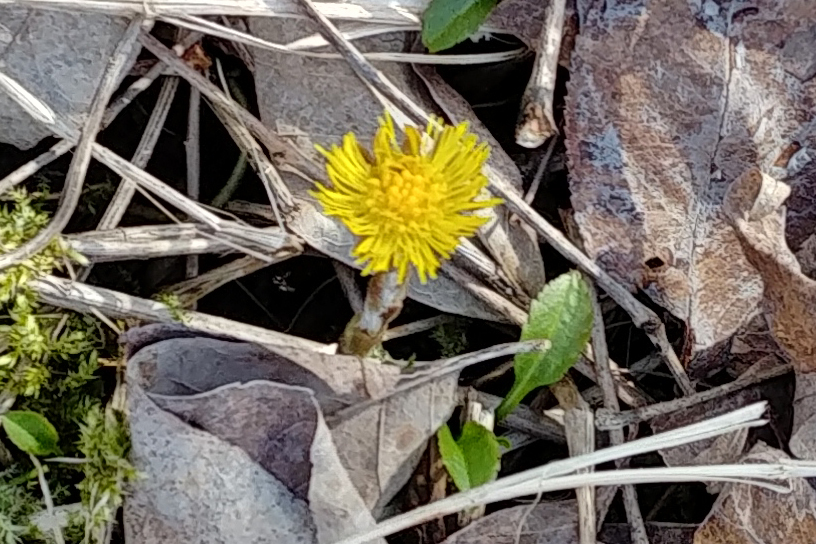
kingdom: Plantae
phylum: Tracheophyta
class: Magnoliopsida
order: Asterales
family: Asteraceae
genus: Tussilago
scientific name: Tussilago farfara
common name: Coltsfoot
